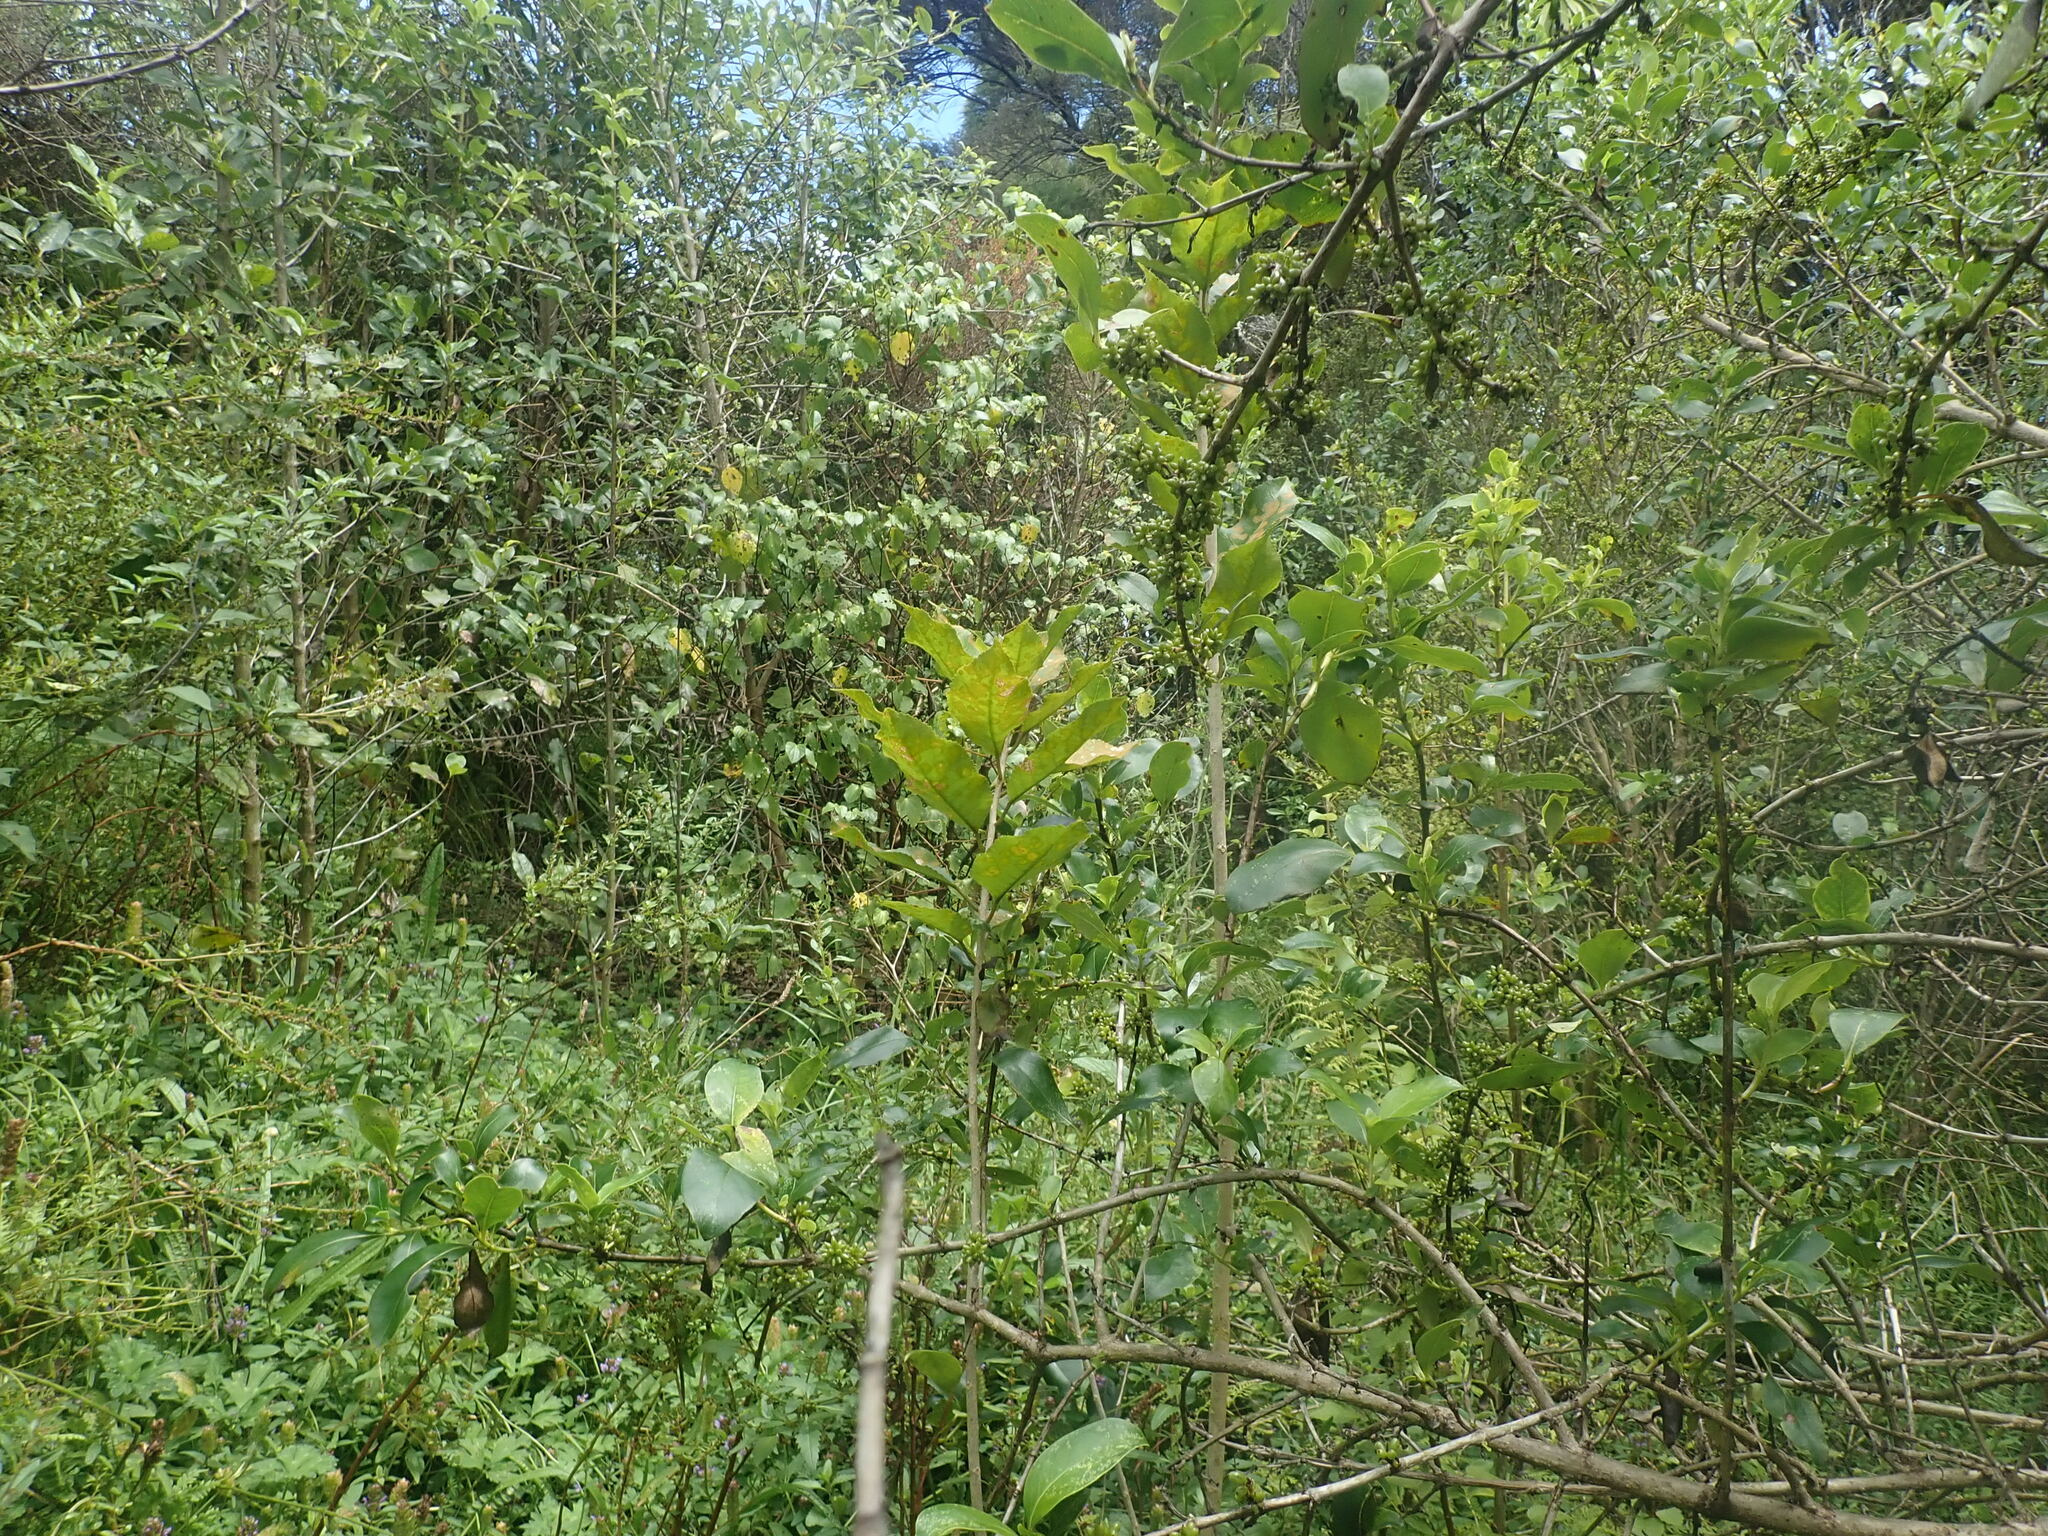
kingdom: Plantae
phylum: Tracheophyta
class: Magnoliopsida
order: Piperales
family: Piperaceae
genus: Macropiper
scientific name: Macropiper excelsum
